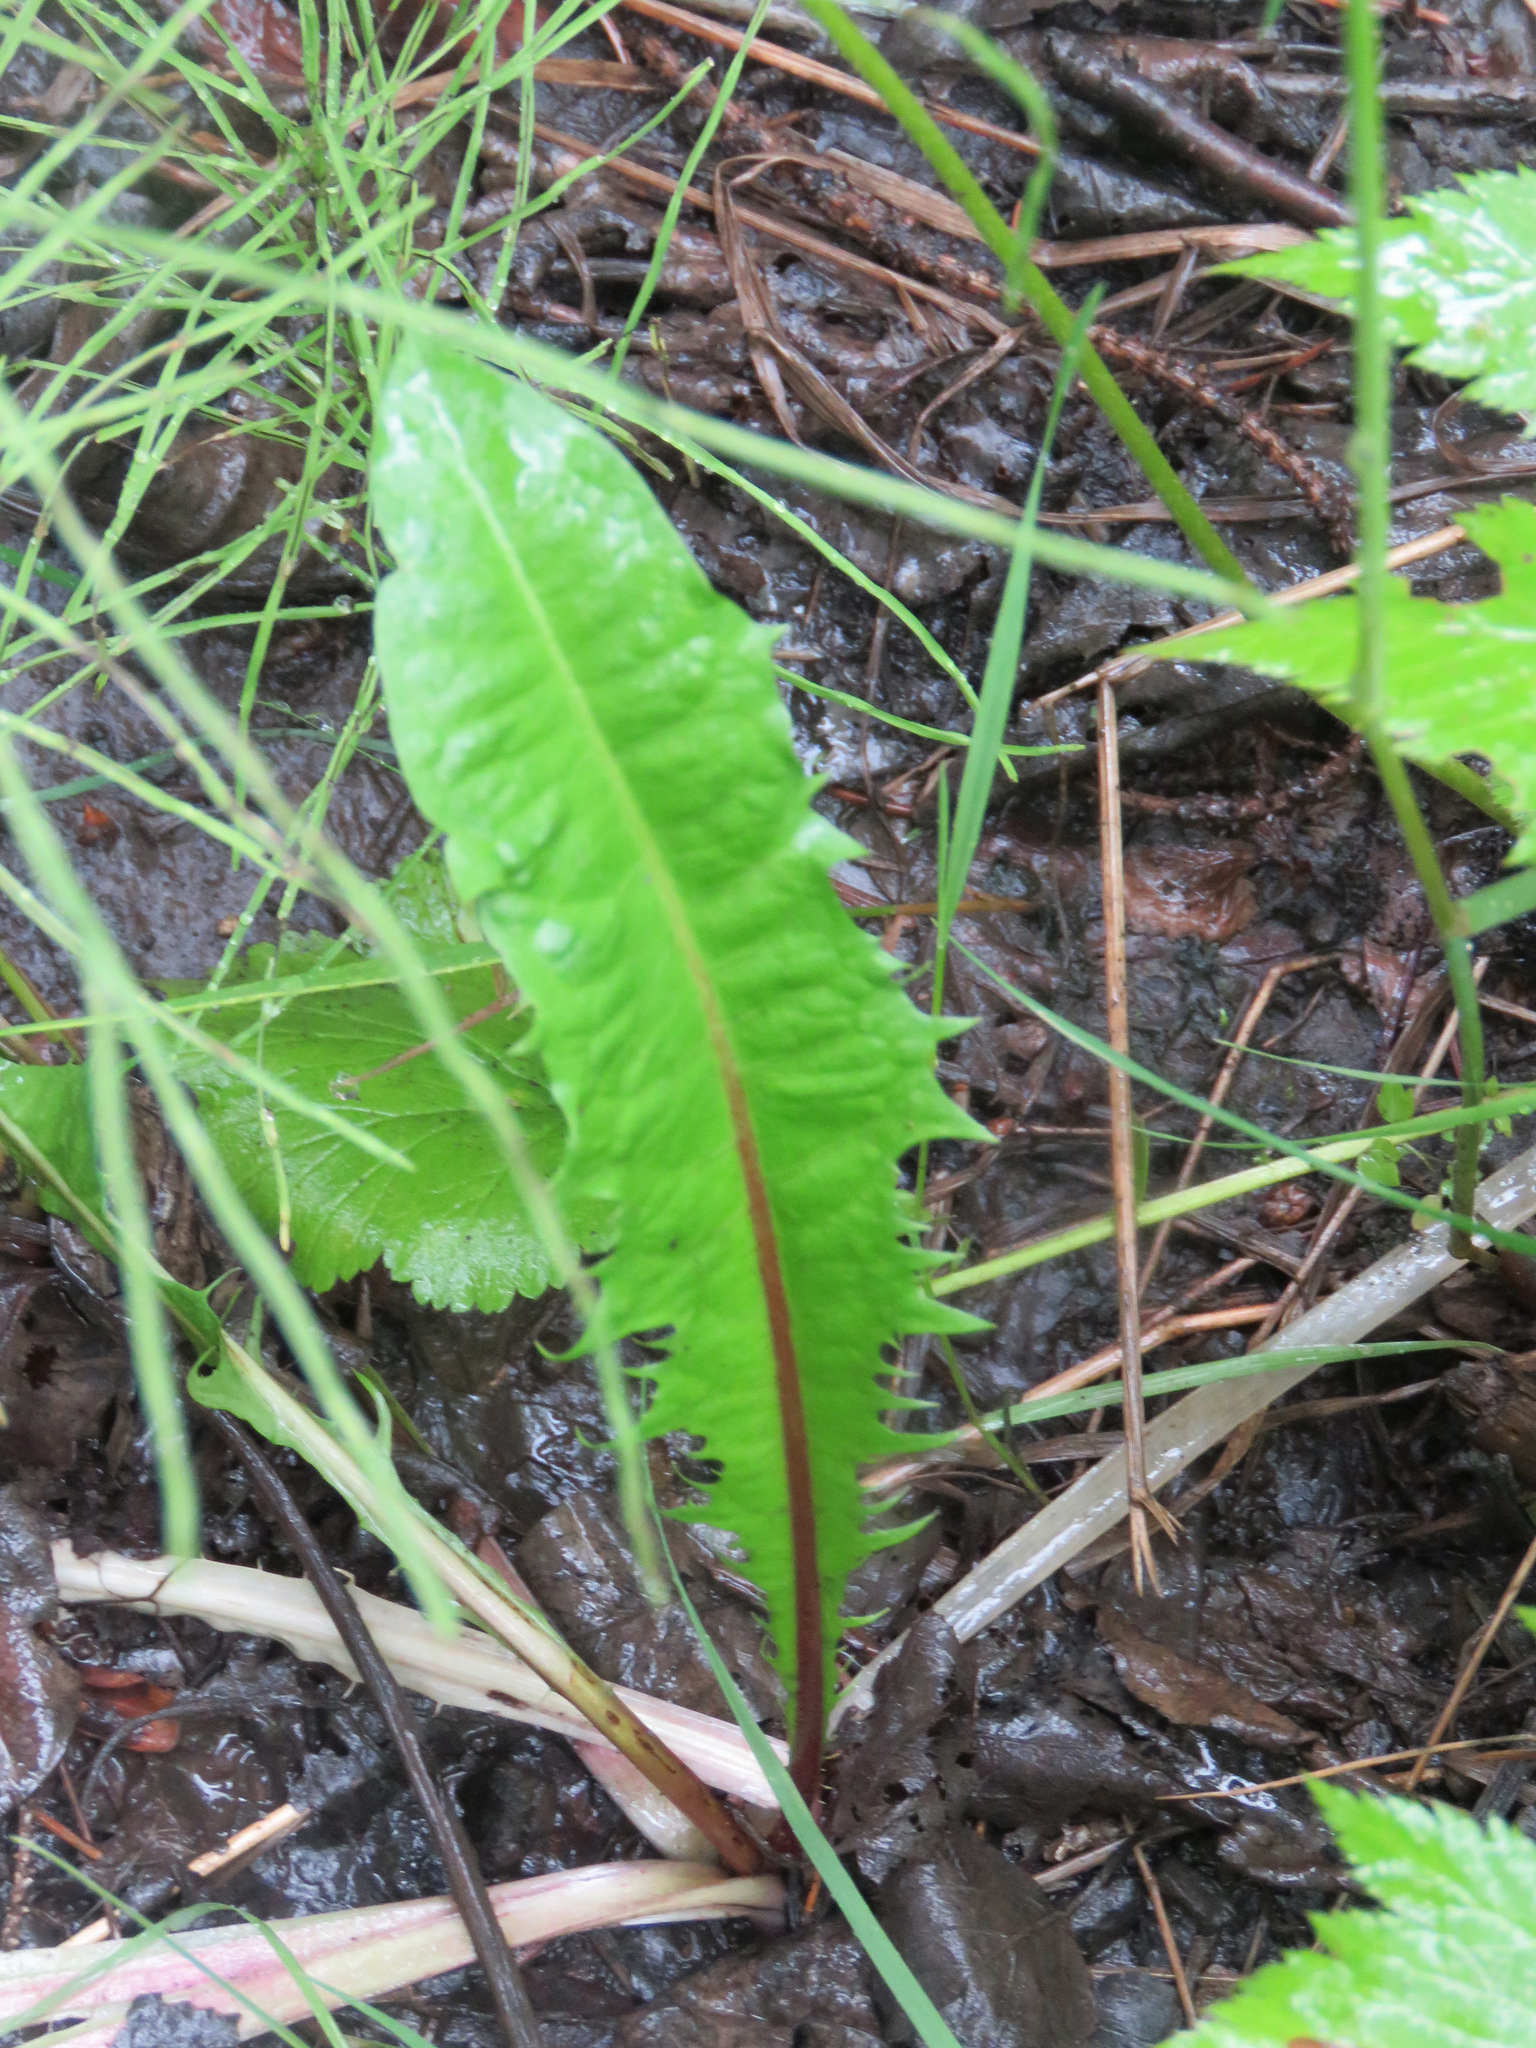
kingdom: Plantae
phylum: Tracheophyta
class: Magnoliopsida
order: Asterales
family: Asteraceae
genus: Taraxacum
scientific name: Taraxacum officinale
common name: Common dandelion
